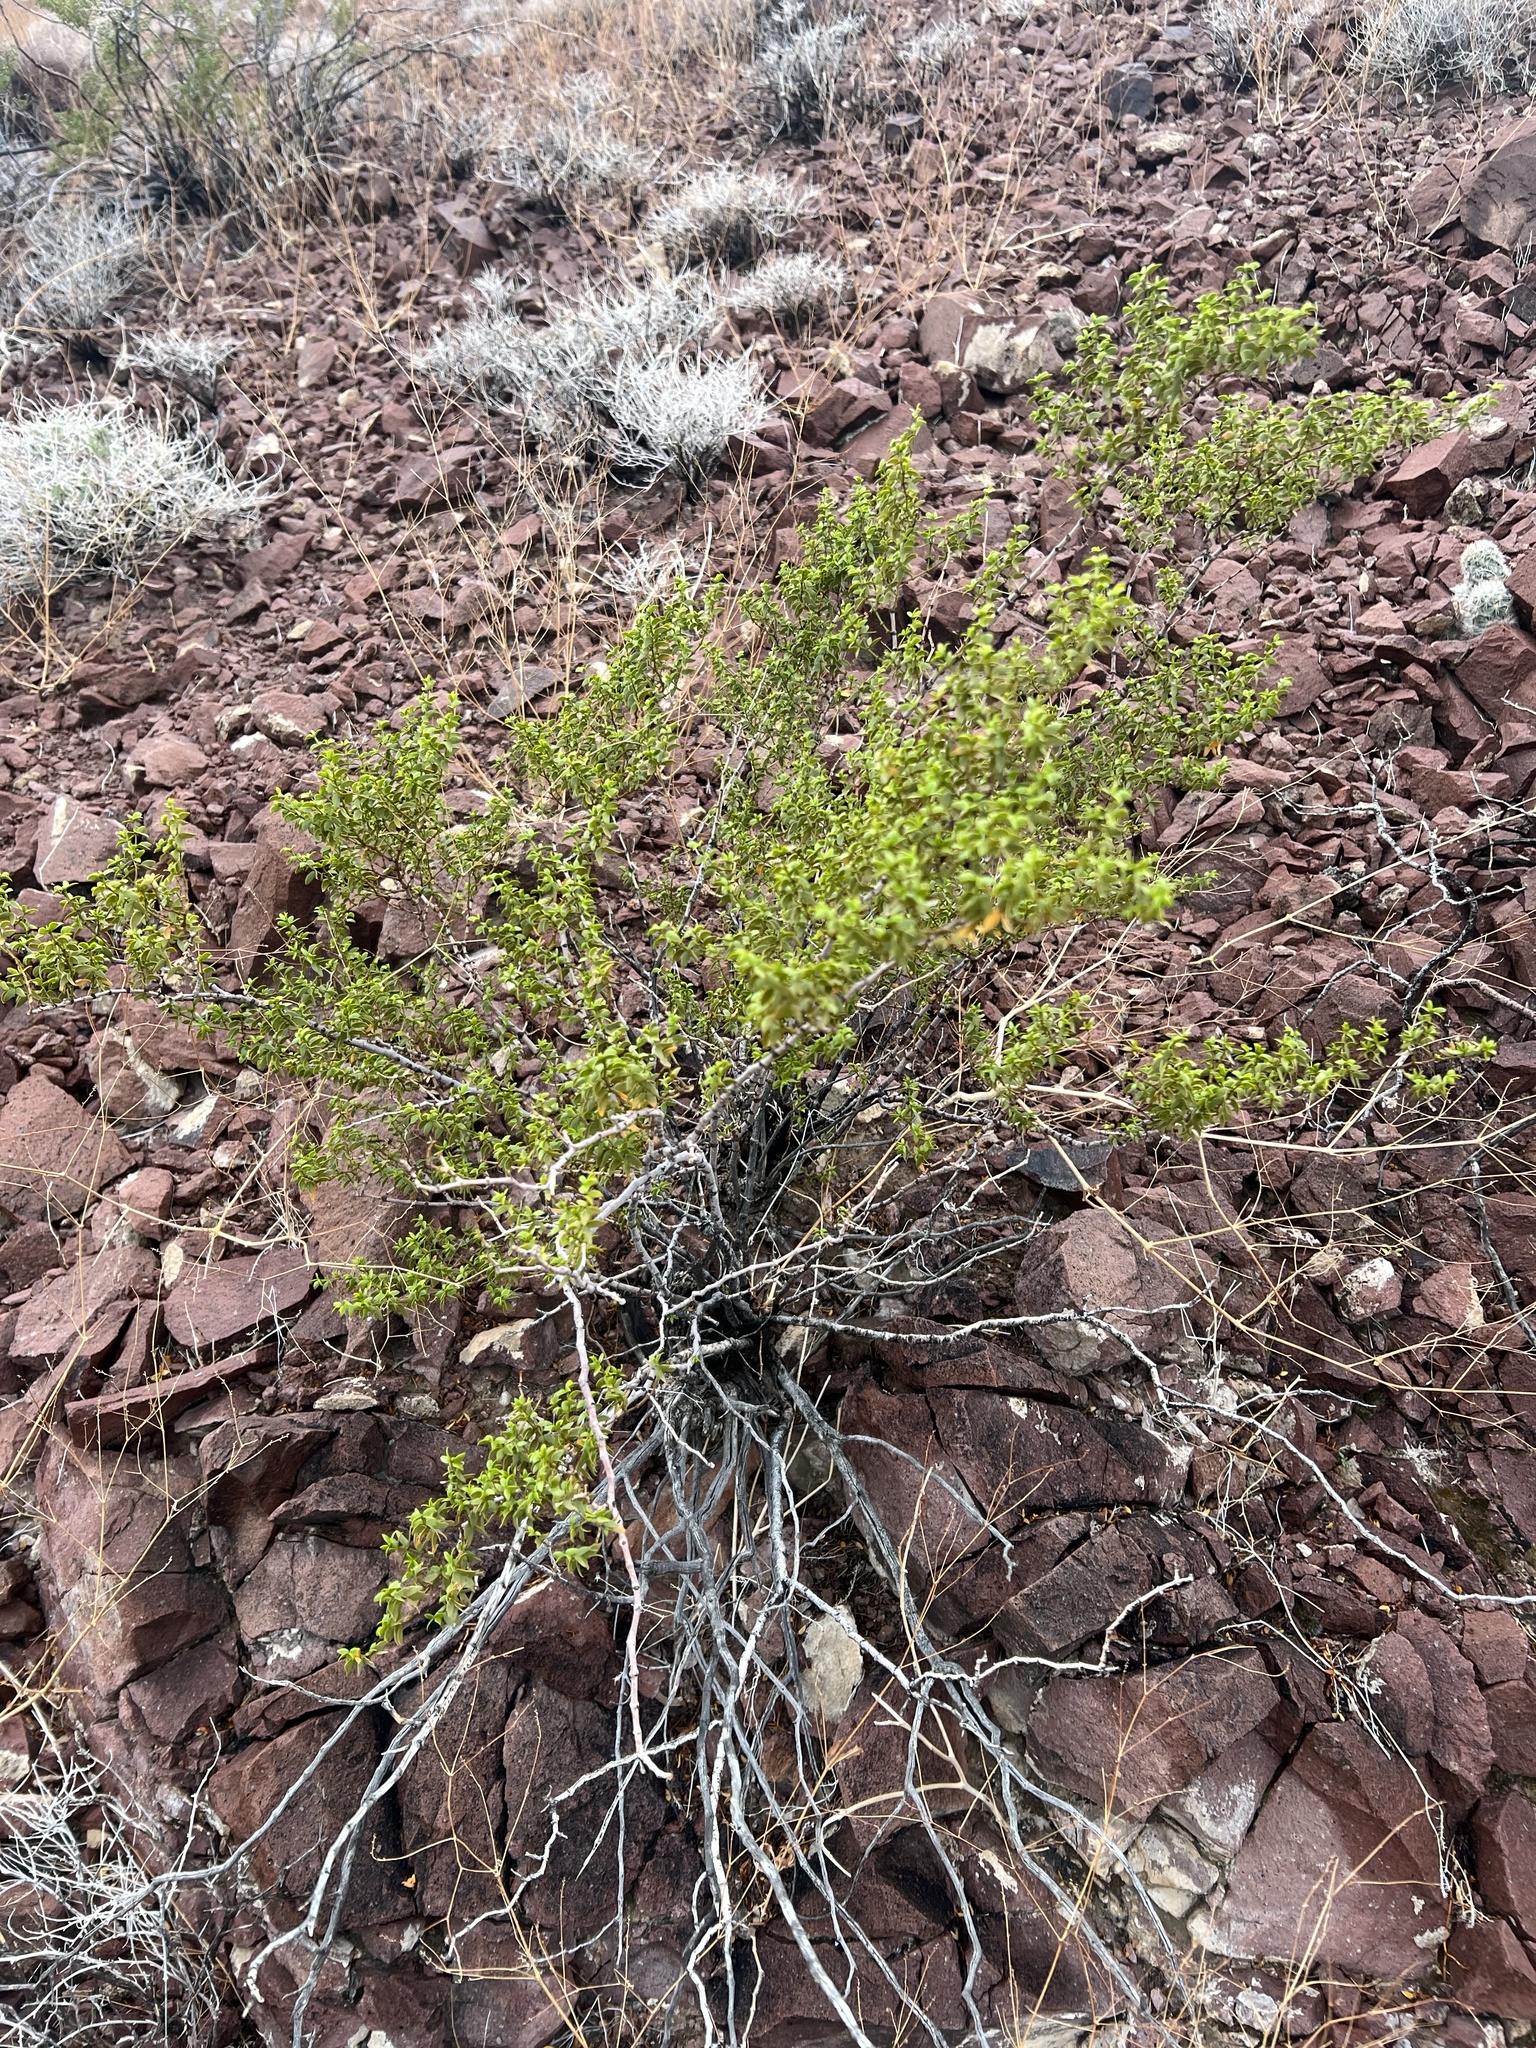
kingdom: Plantae
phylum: Tracheophyta
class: Magnoliopsida
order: Zygophyllales
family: Zygophyllaceae
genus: Larrea
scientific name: Larrea tridentata
